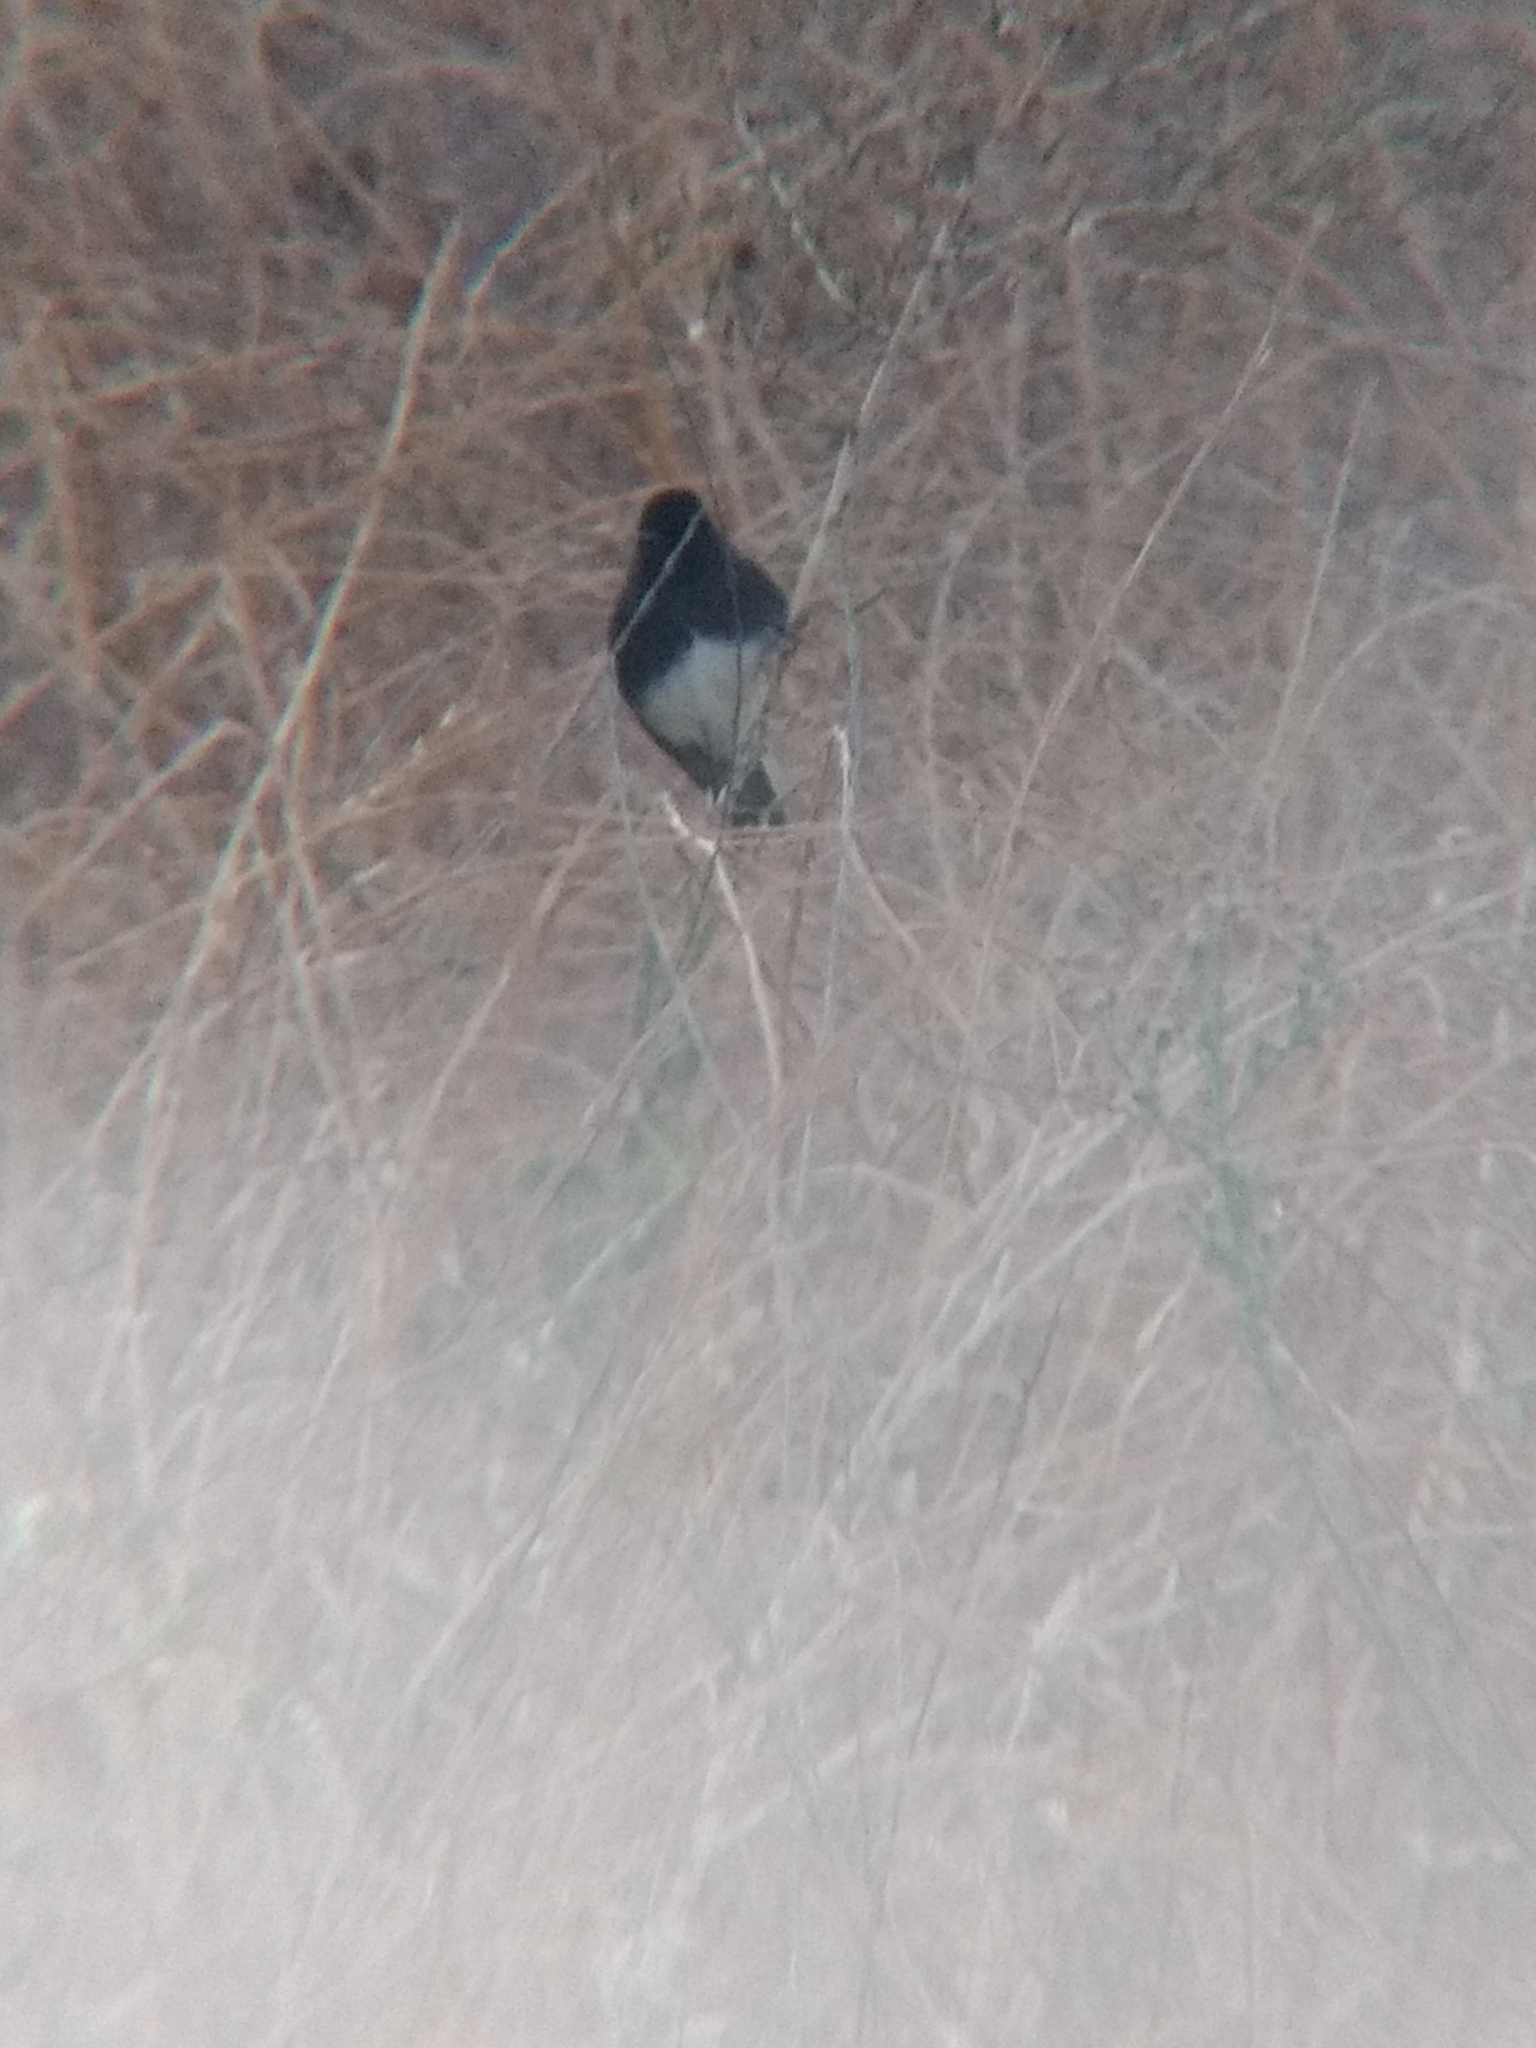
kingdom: Animalia
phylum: Chordata
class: Aves
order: Passeriformes
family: Tyrannidae
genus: Sayornis
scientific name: Sayornis nigricans
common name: Black phoebe
